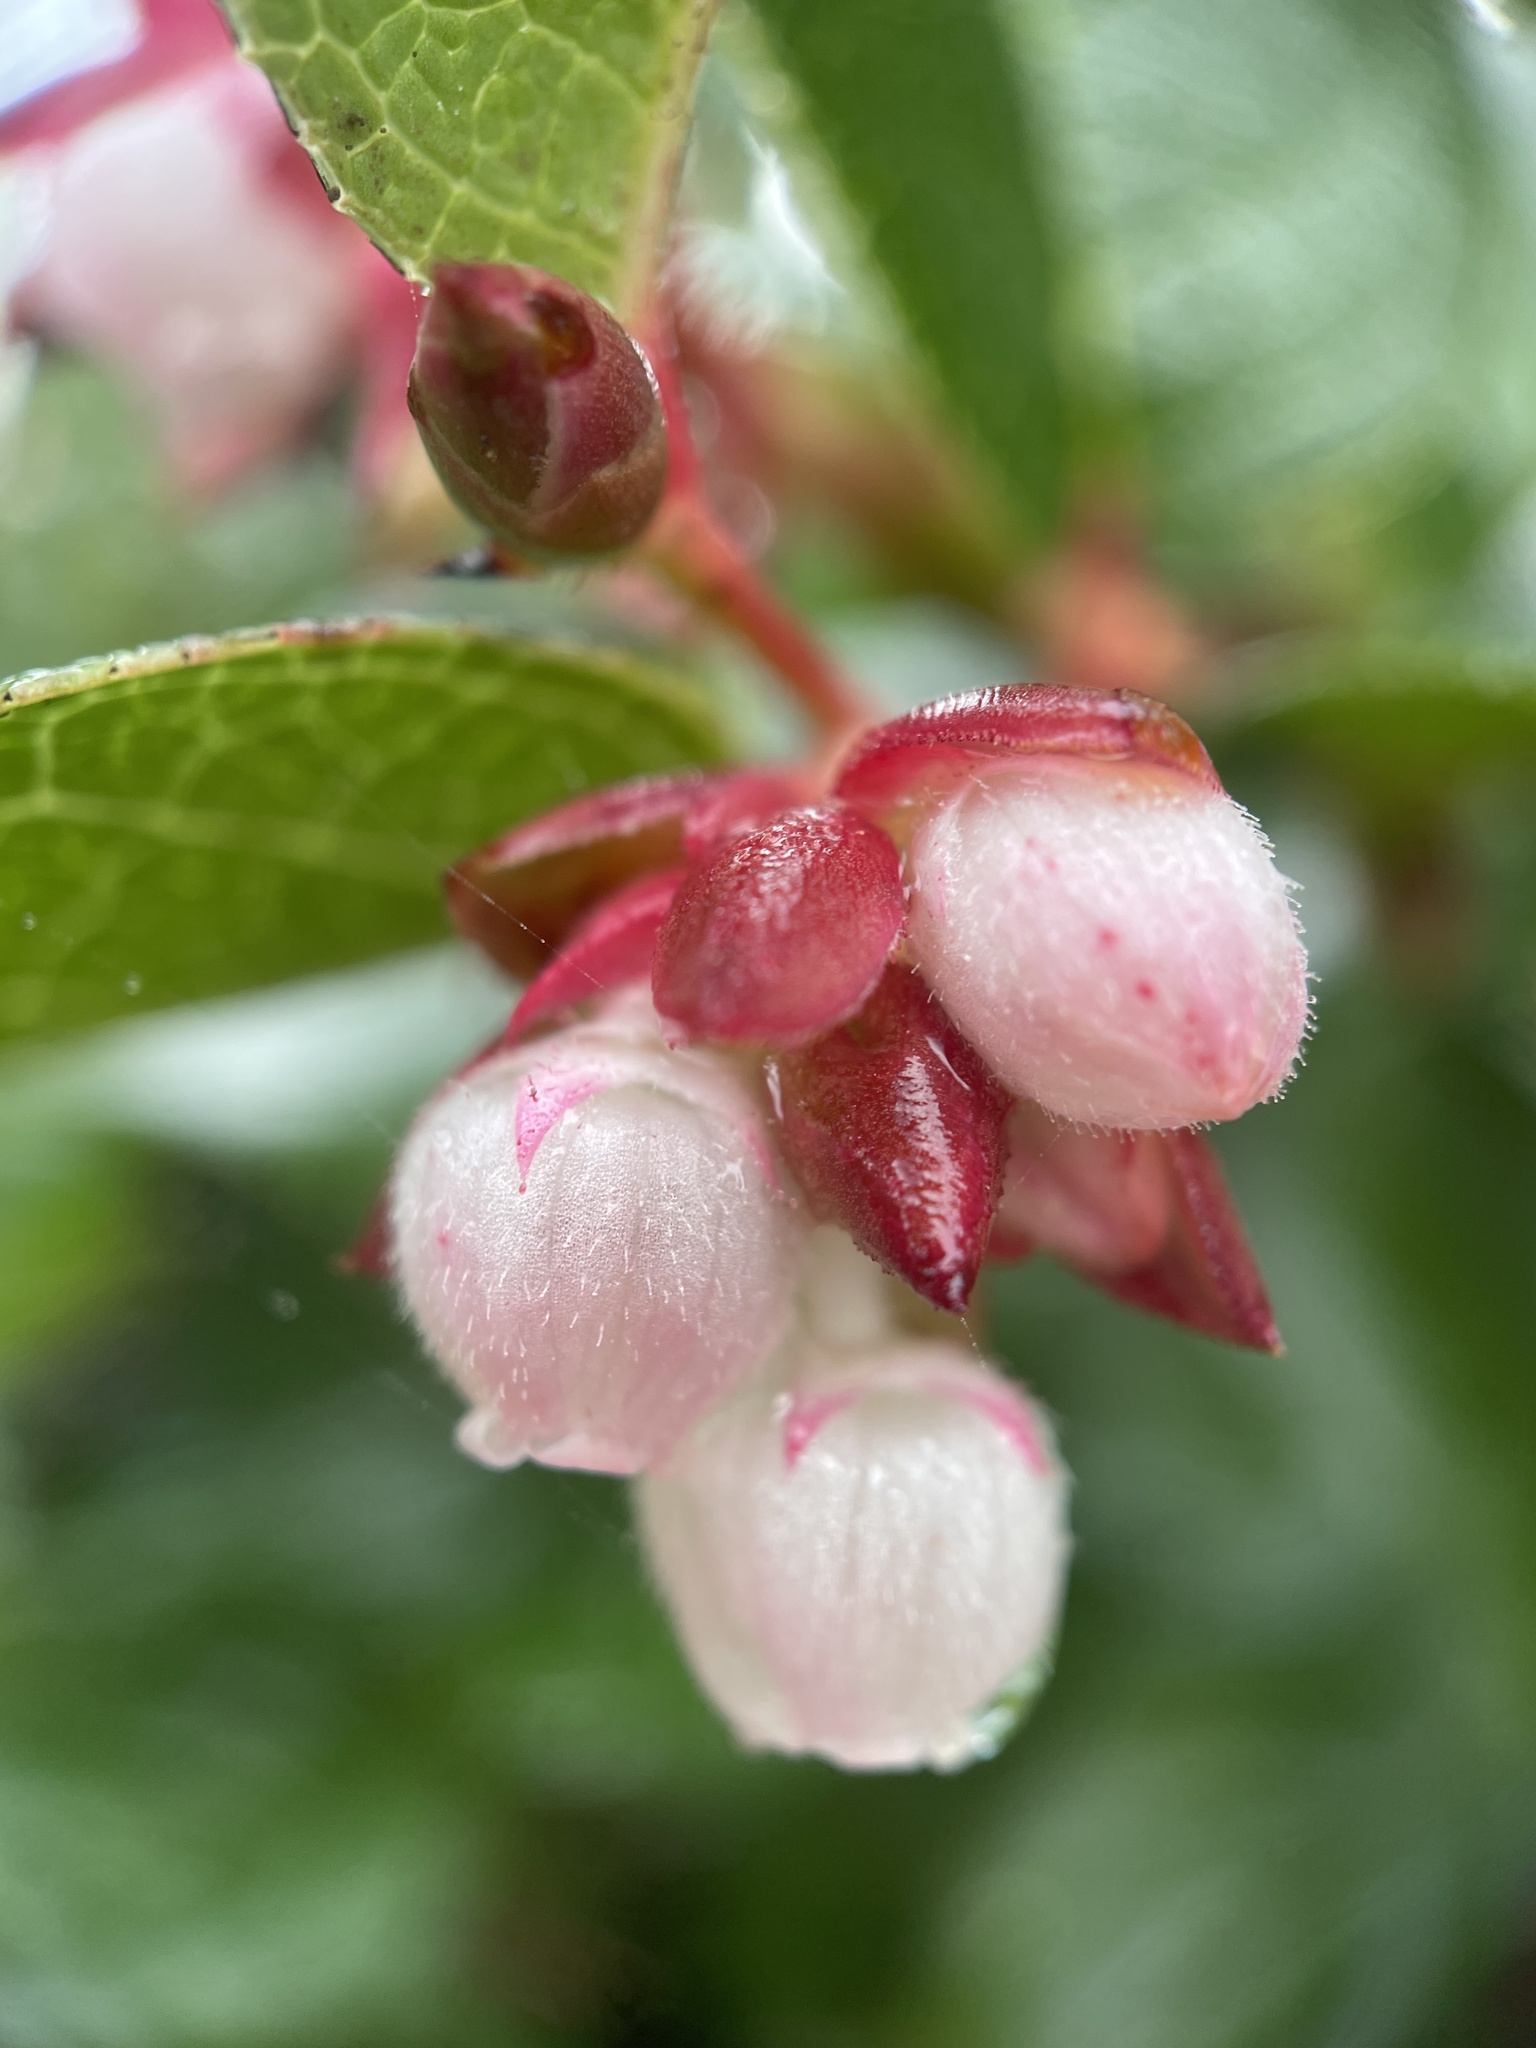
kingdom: Plantae
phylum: Tracheophyta
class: Magnoliopsida
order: Ericales
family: Ericaceae
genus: Gaultheria
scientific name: Gaultheria shallon
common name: Shallon
